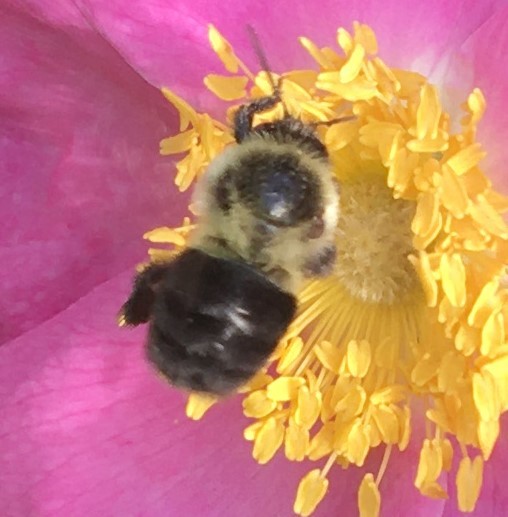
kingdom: Animalia
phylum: Arthropoda
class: Insecta
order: Hymenoptera
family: Apidae
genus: Bombus
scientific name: Bombus impatiens
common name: Common eastern bumble bee
